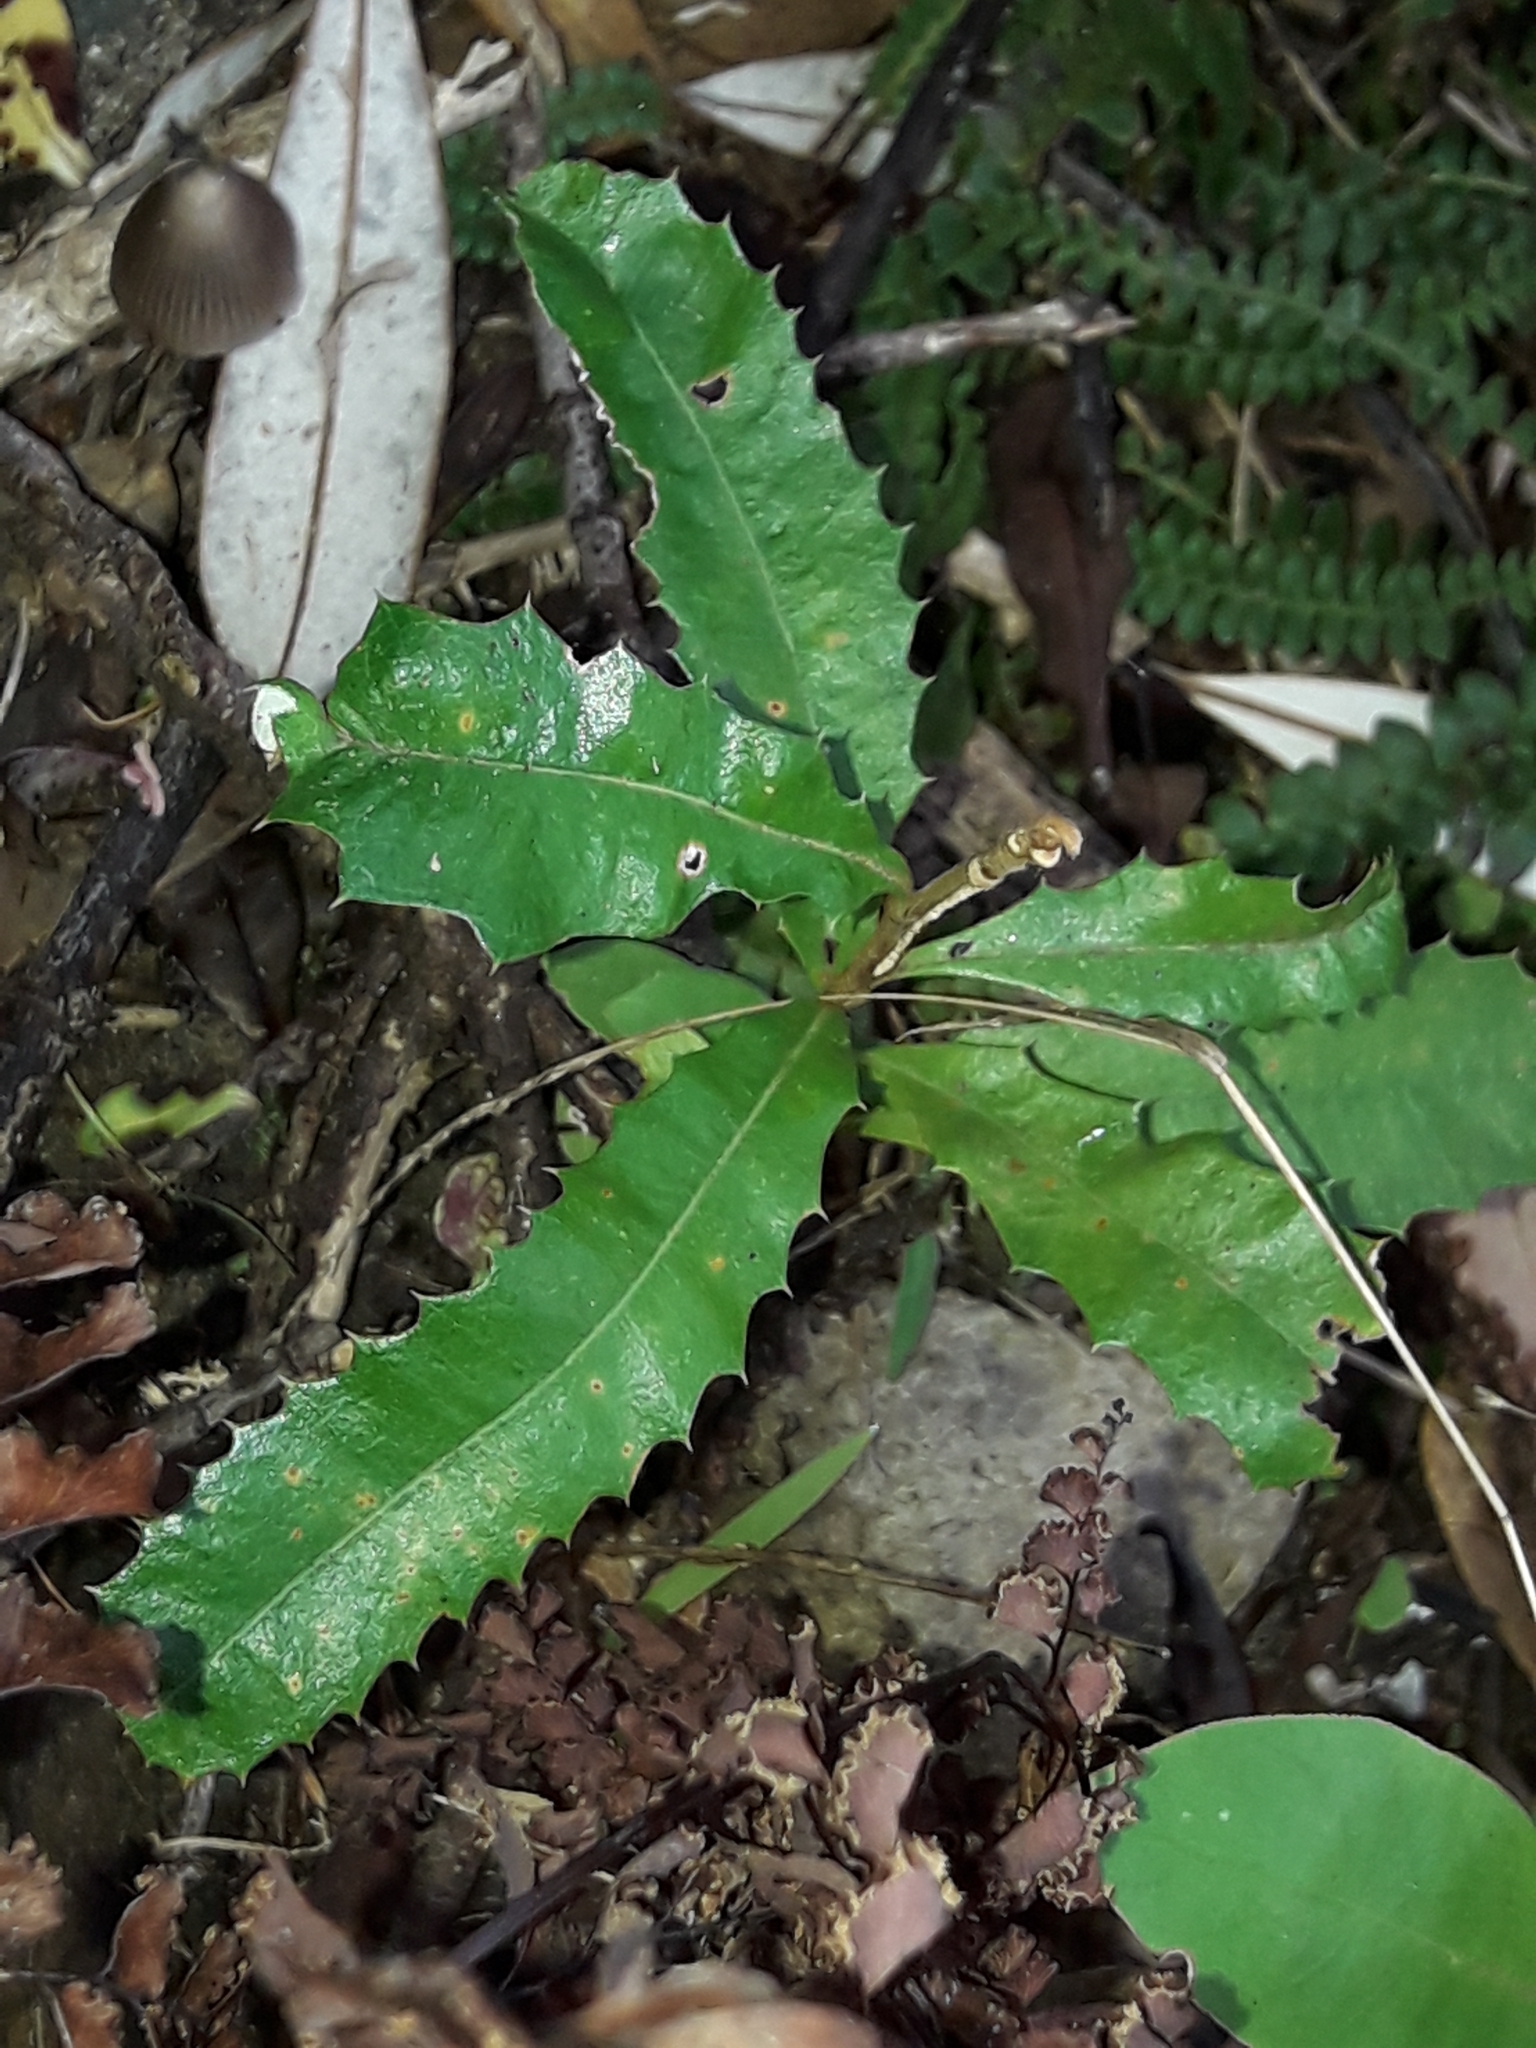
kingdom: Plantae
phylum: Tracheophyta
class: Magnoliopsida
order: Proteales
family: Proteaceae
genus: Banksia
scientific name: Banksia integrifolia
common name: White-honeysuckle
